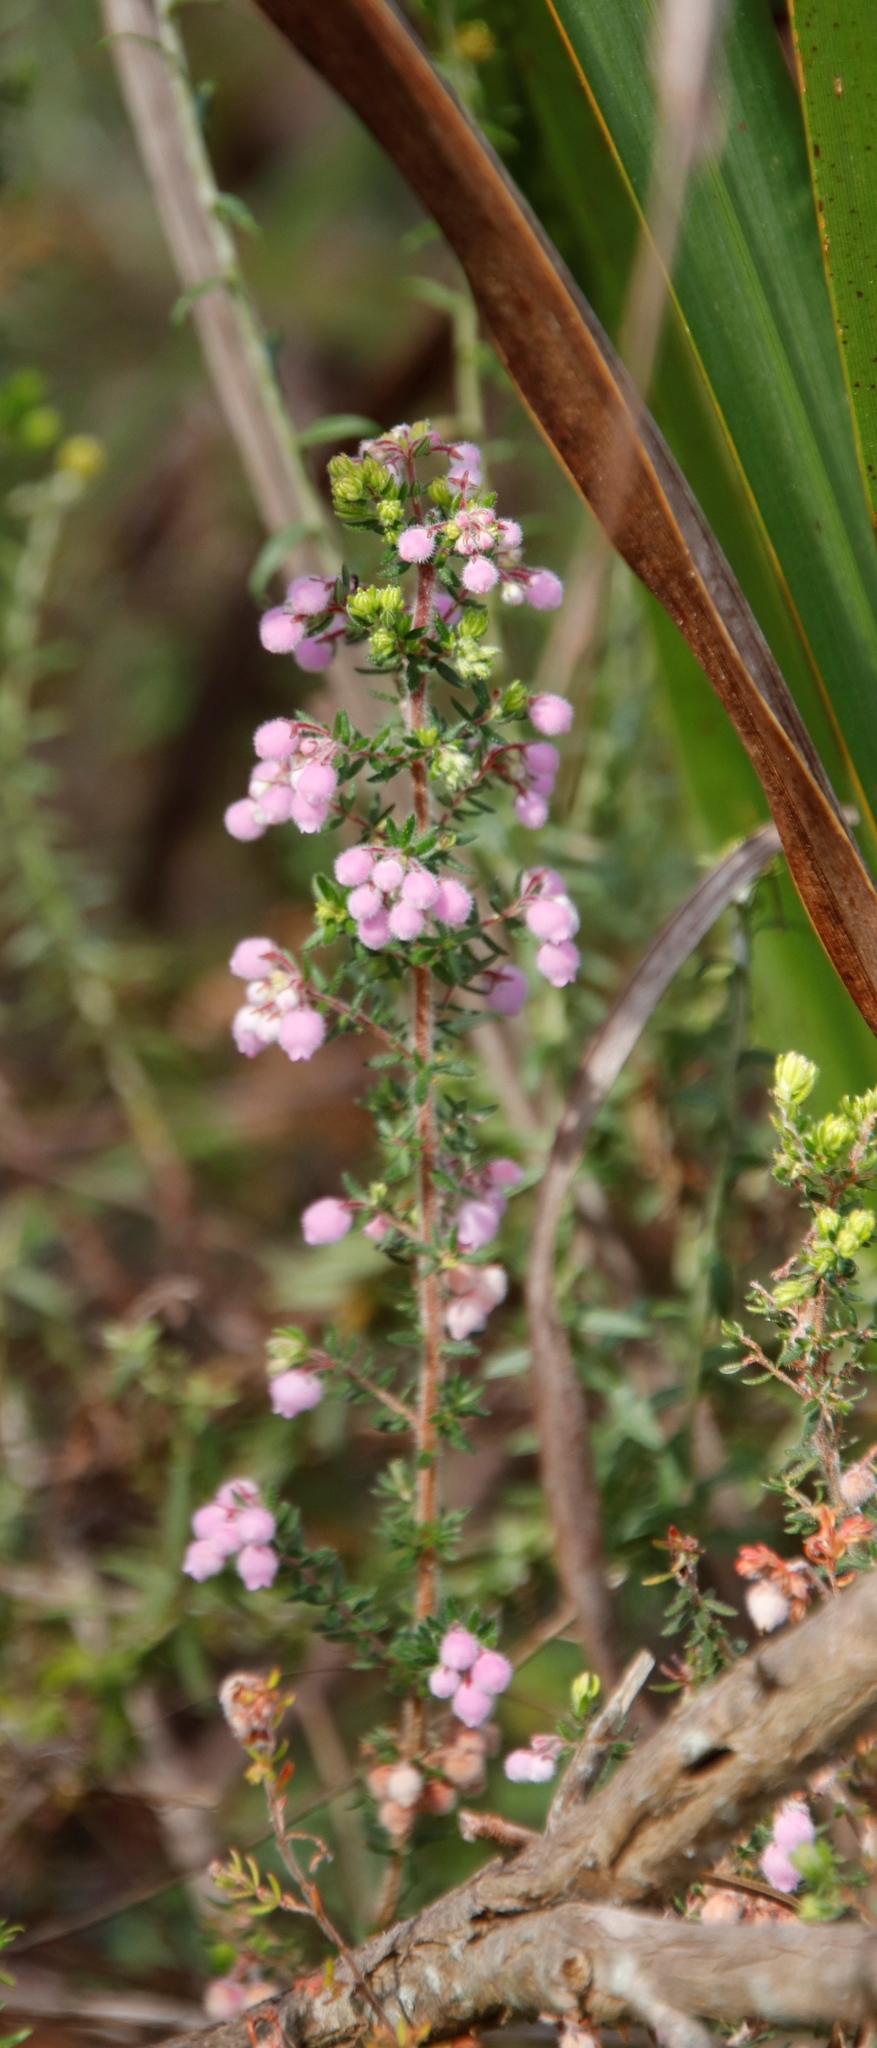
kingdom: Plantae
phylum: Tracheophyta
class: Magnoliopsida
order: Ericales
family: Ericaceae
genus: Erica
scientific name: Erica hirtiflora
